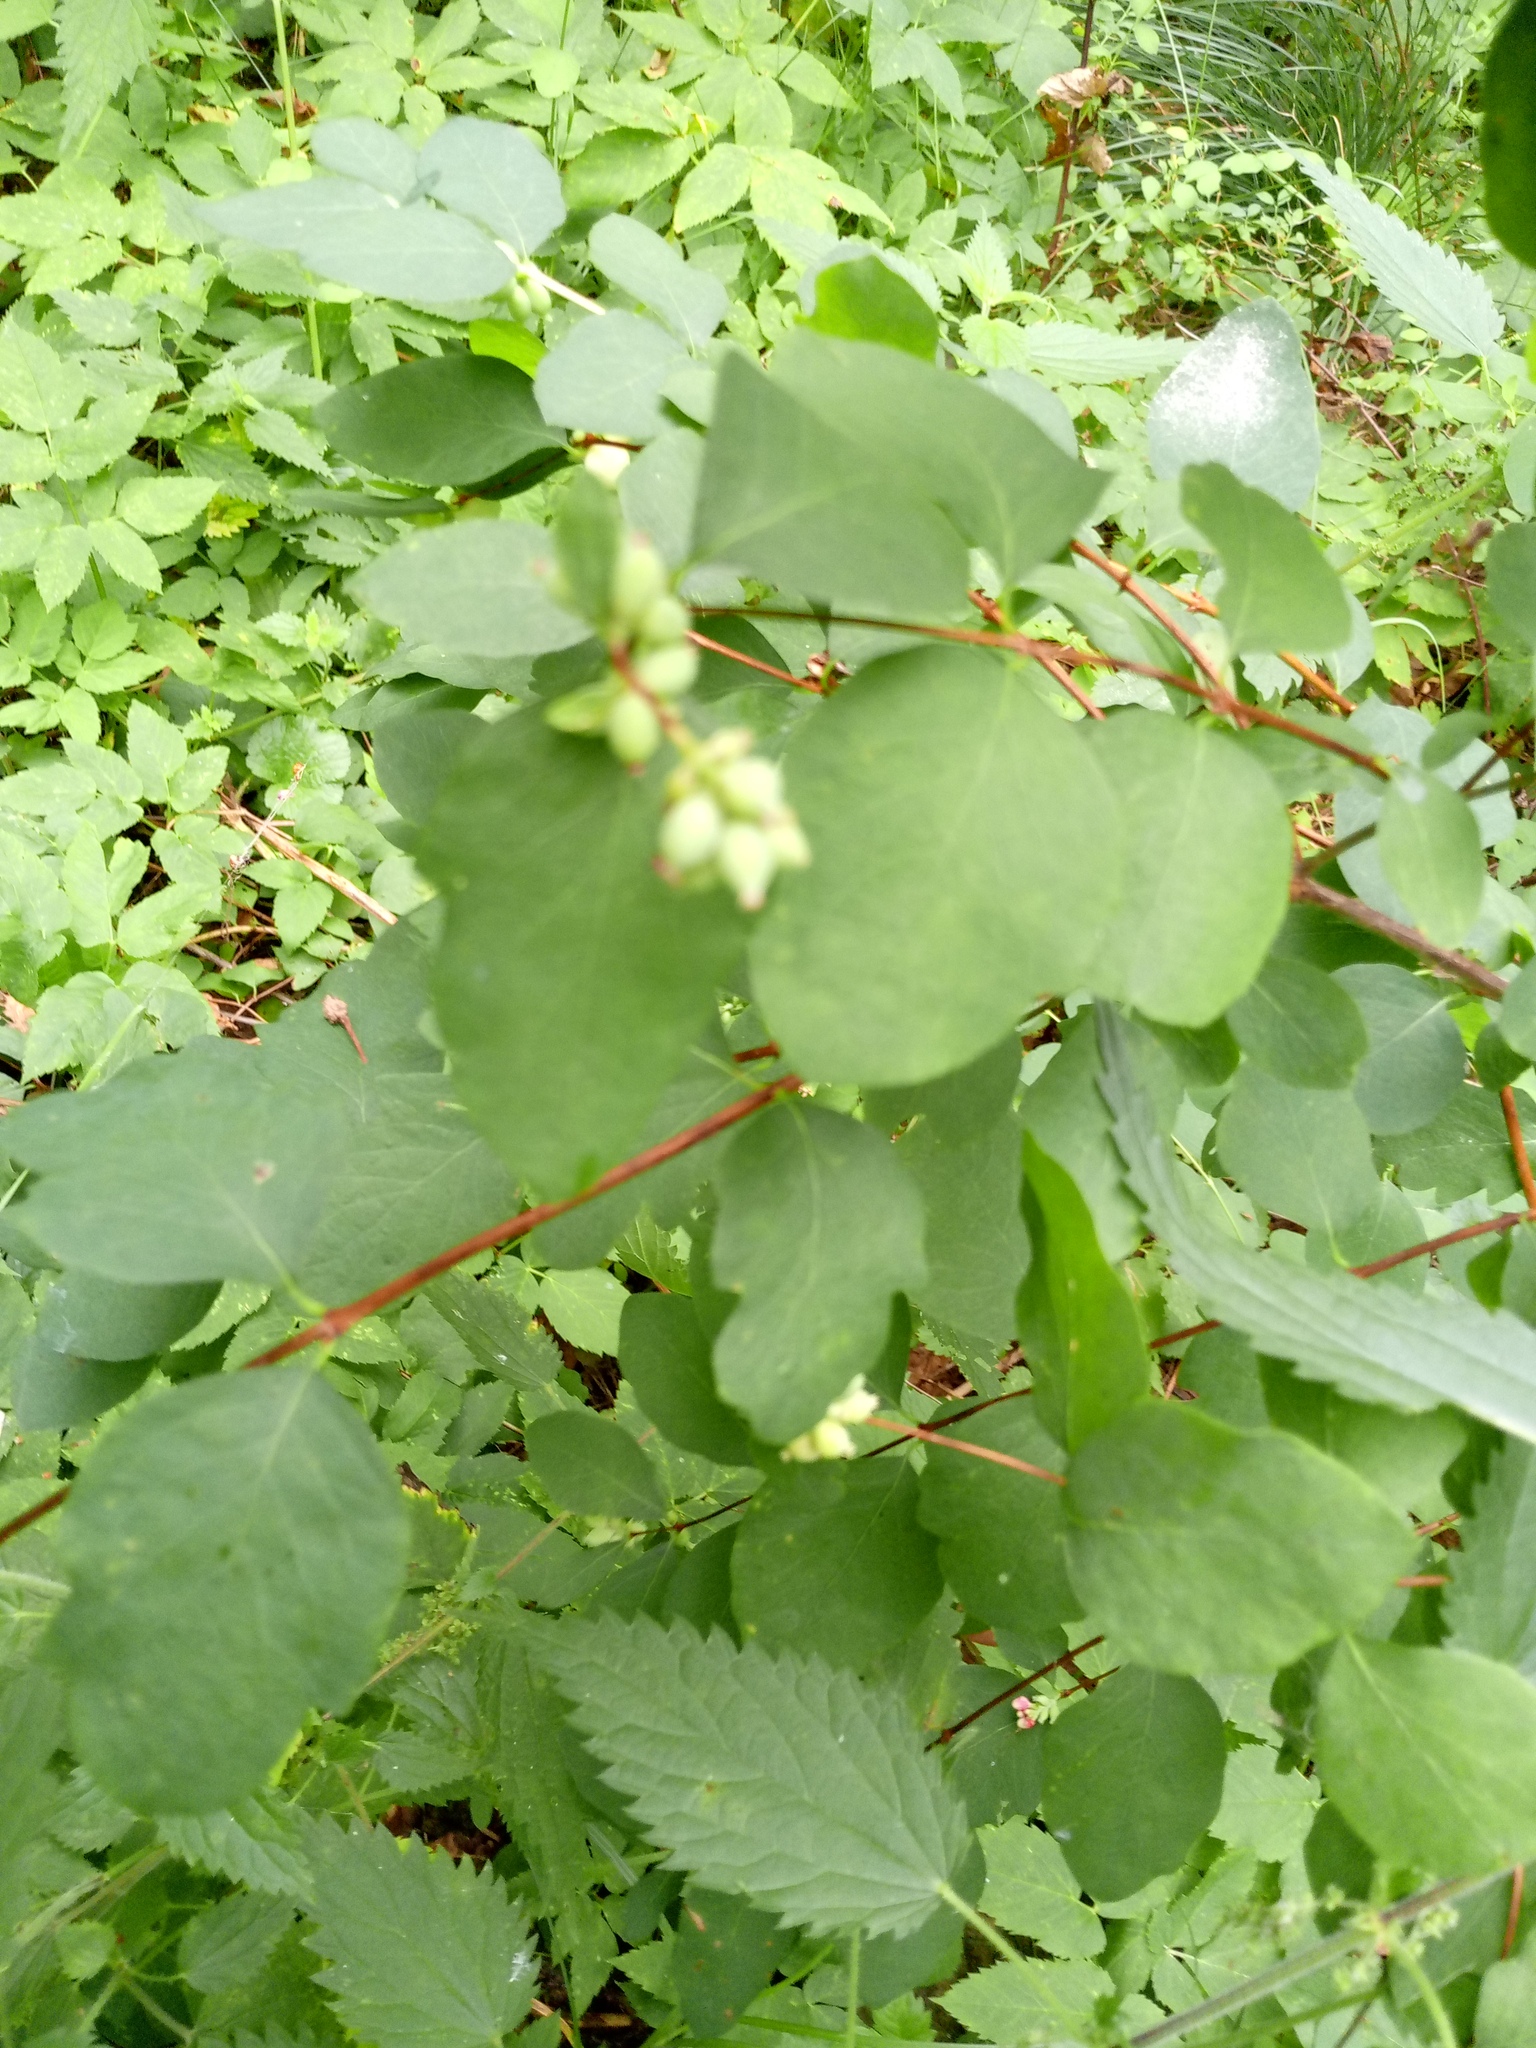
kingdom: Plantae
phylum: Tracheophyta
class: Magnoliopsida
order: Dipsacales
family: Caprifoliaceae
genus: Symphoricarpos
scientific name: Symphoricarpos albus
